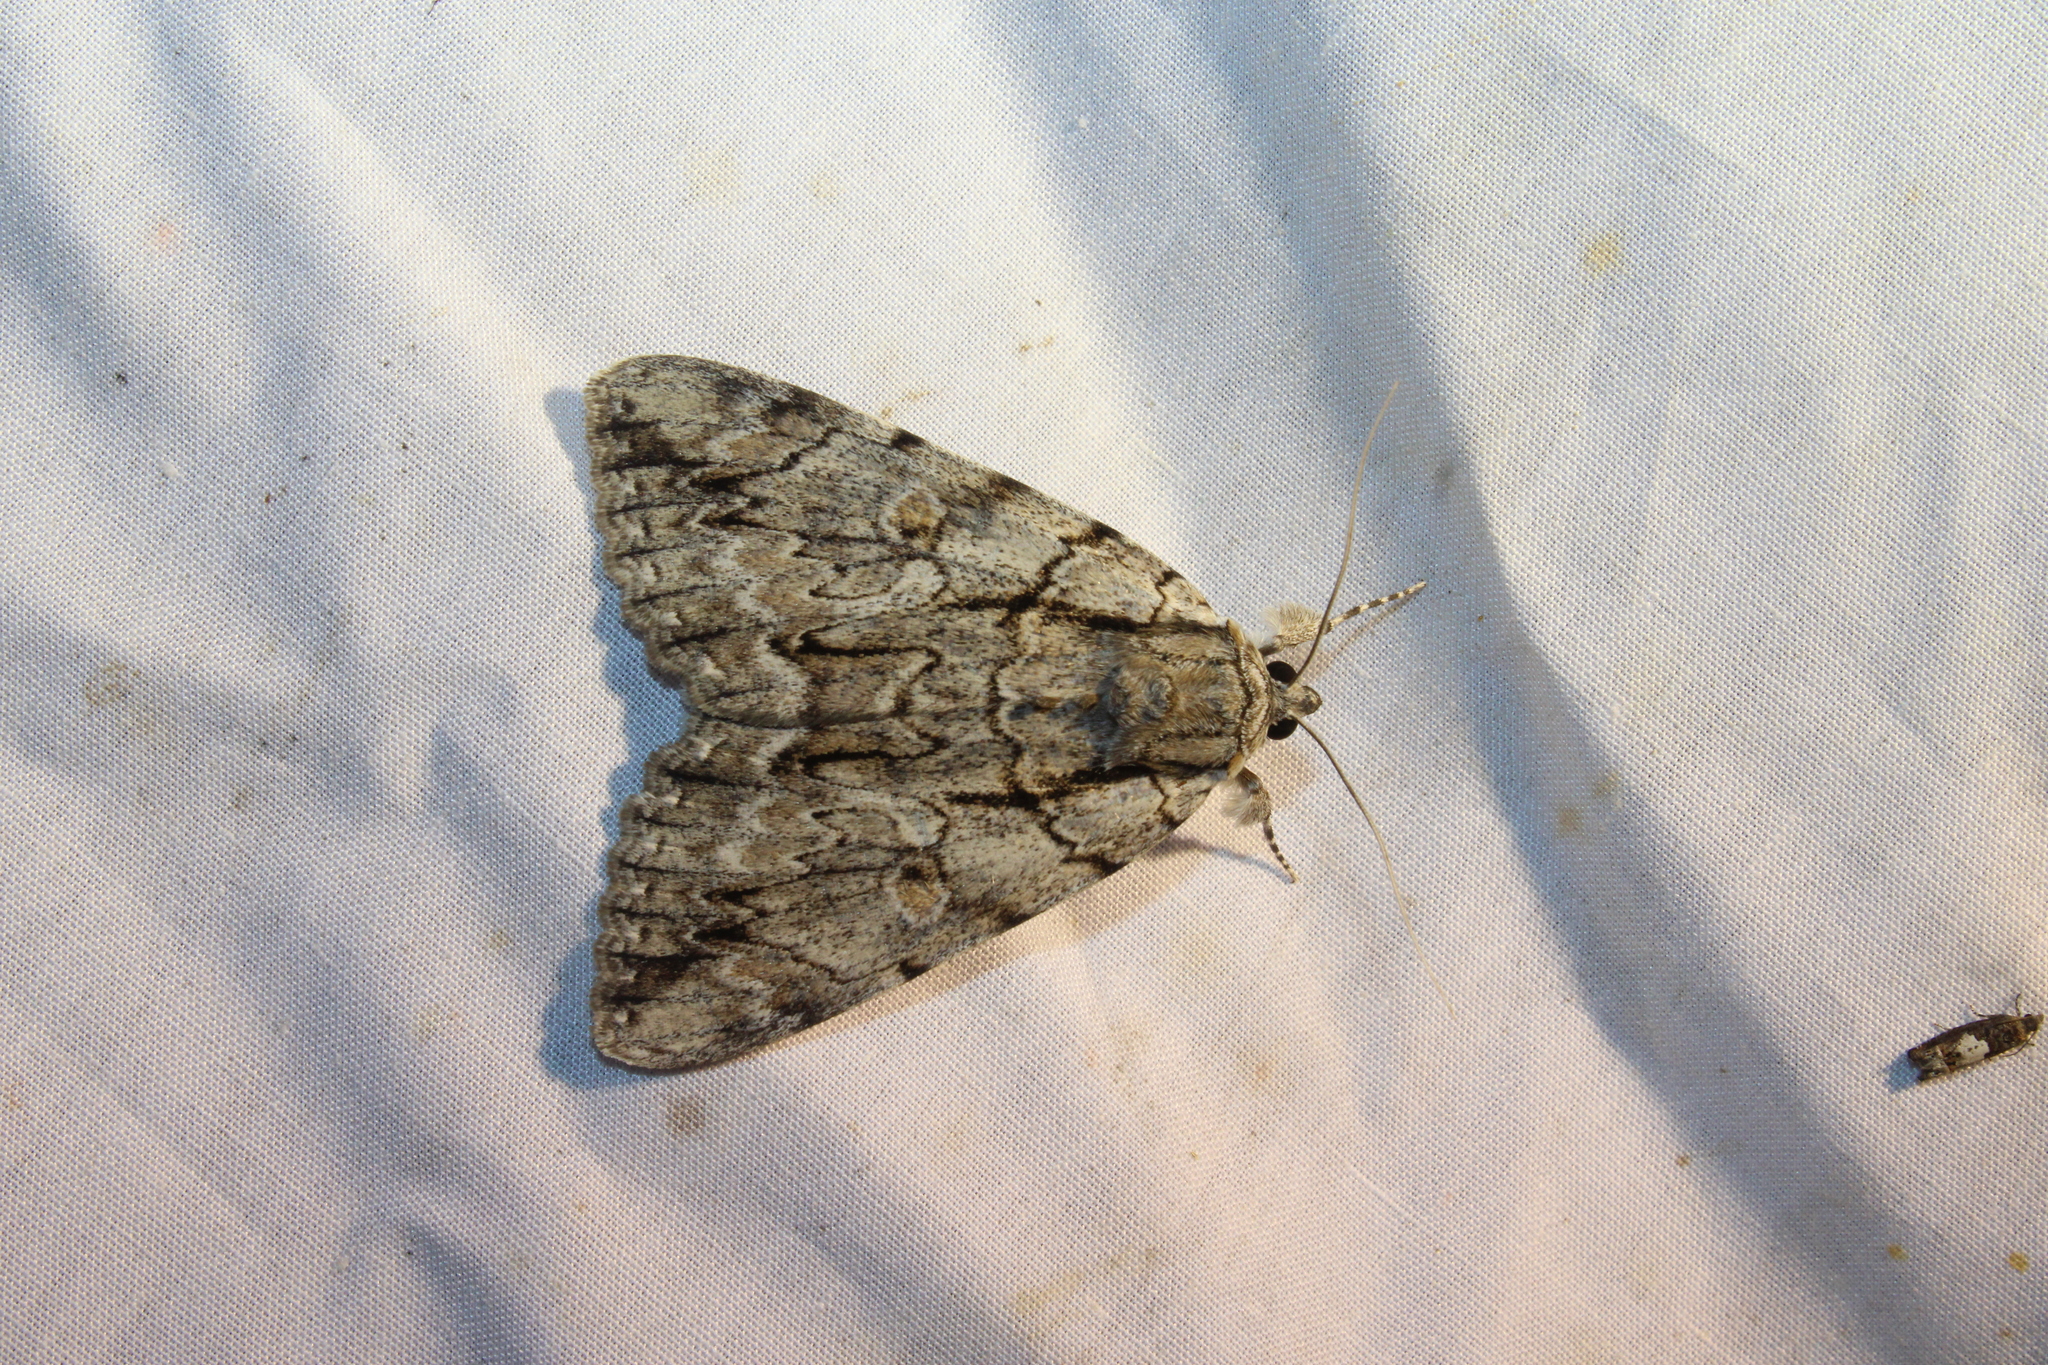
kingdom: Animalia
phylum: Arthropoda
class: Insecta
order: Lepidoptera
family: Erebidae
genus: Catocala
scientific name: Catocala retecta
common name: Yellow-gray underwing
